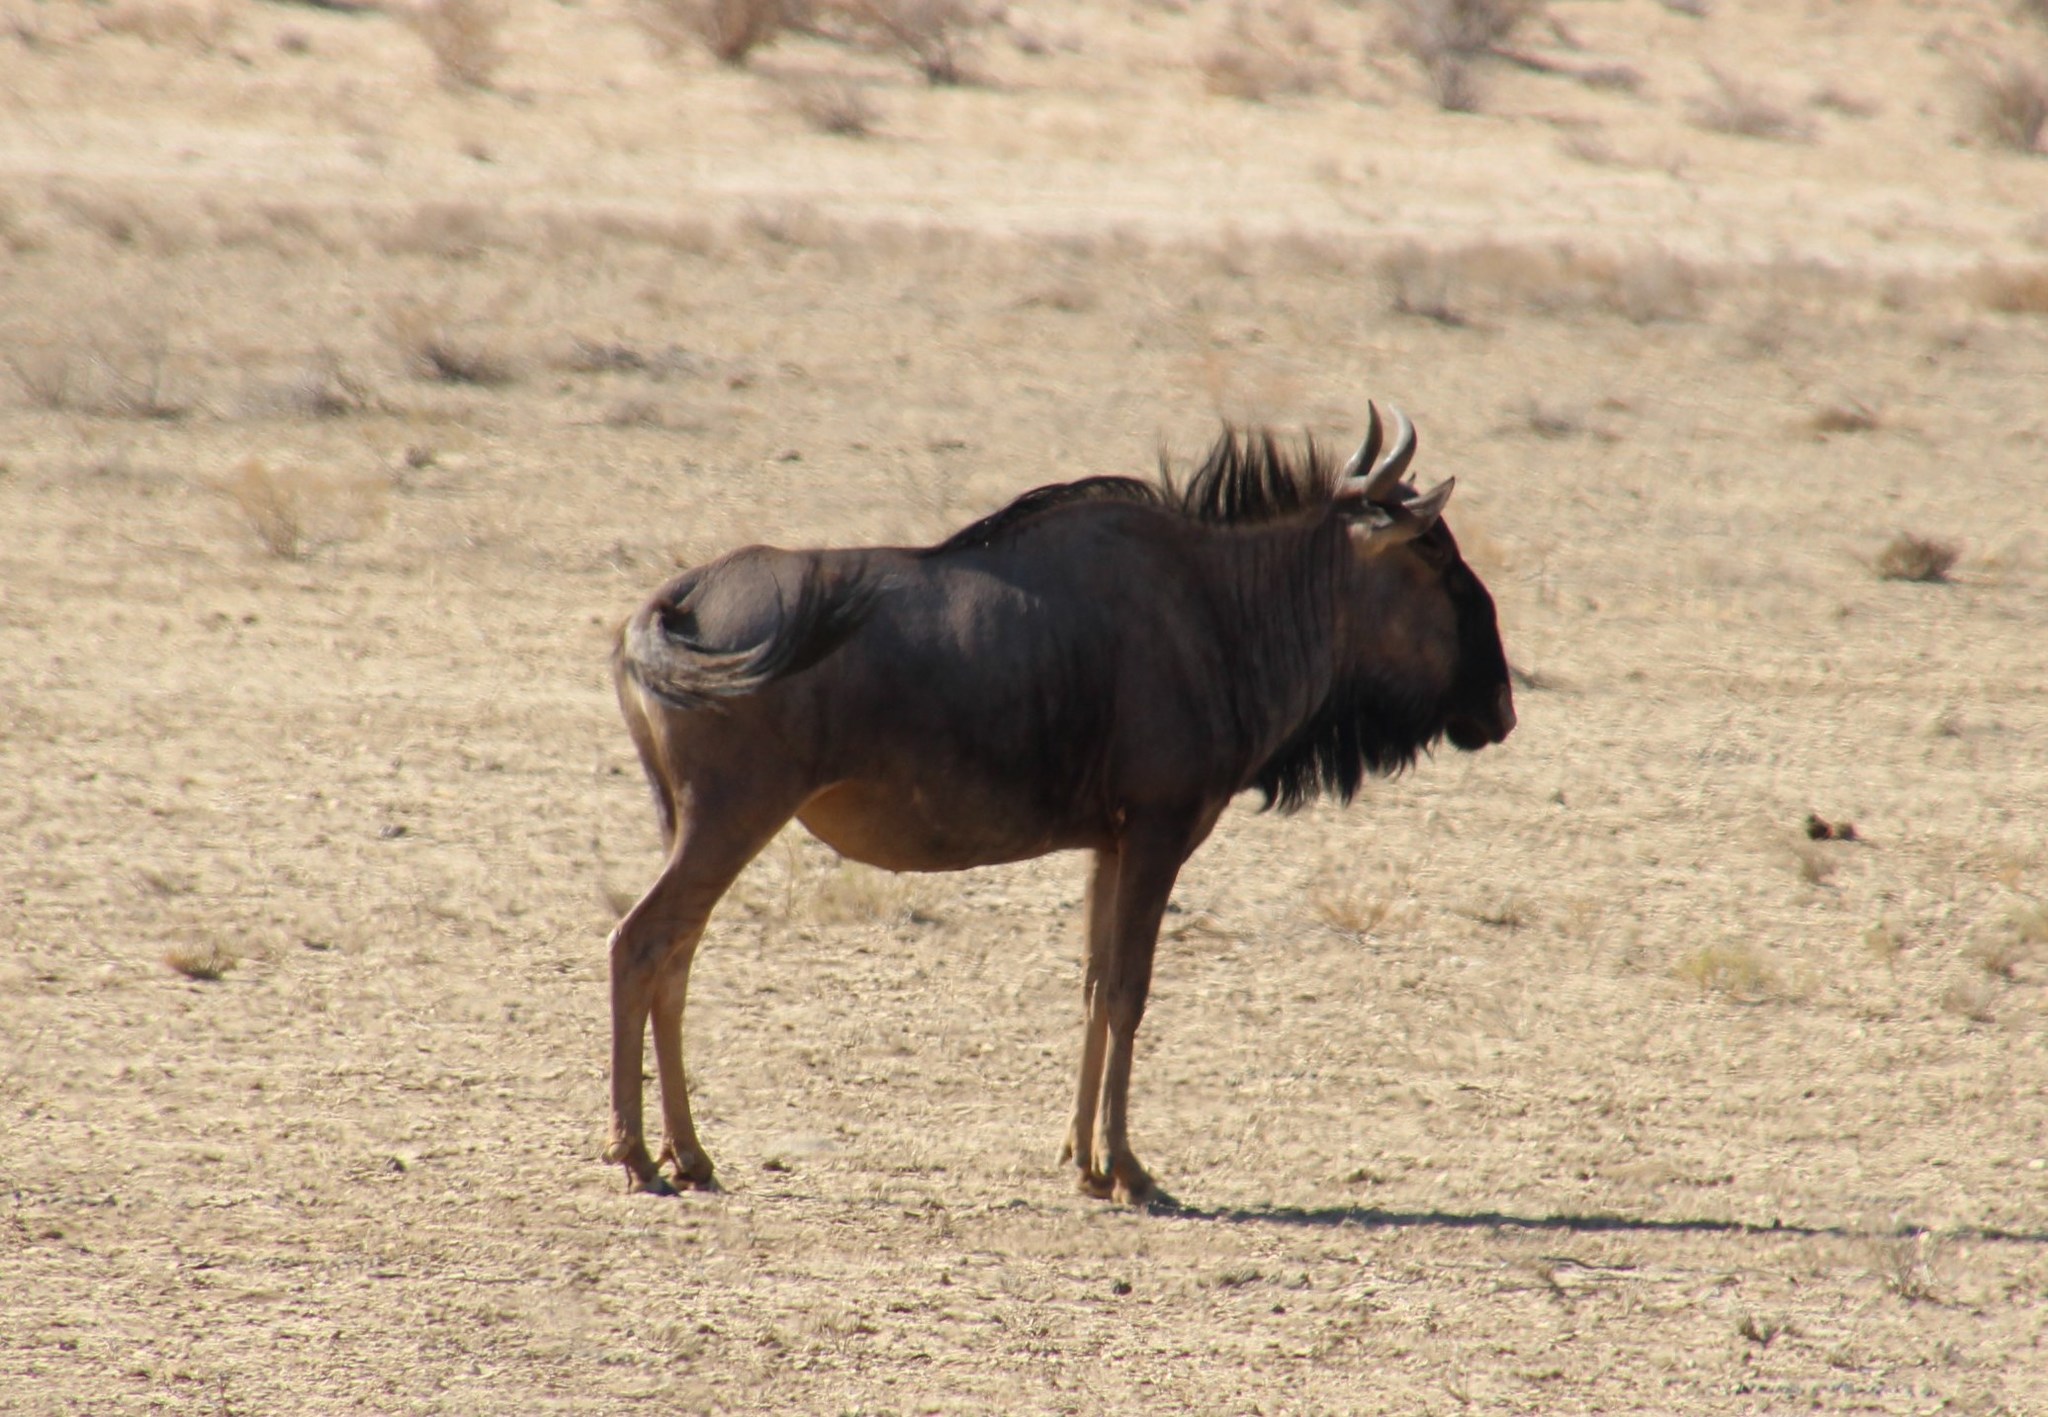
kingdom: Animalia
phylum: Chordata
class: Mammalia
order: Artiodactyla
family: Bovidae
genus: Connochaetes
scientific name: Connochaetes taurinus
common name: Blue wildebeest
